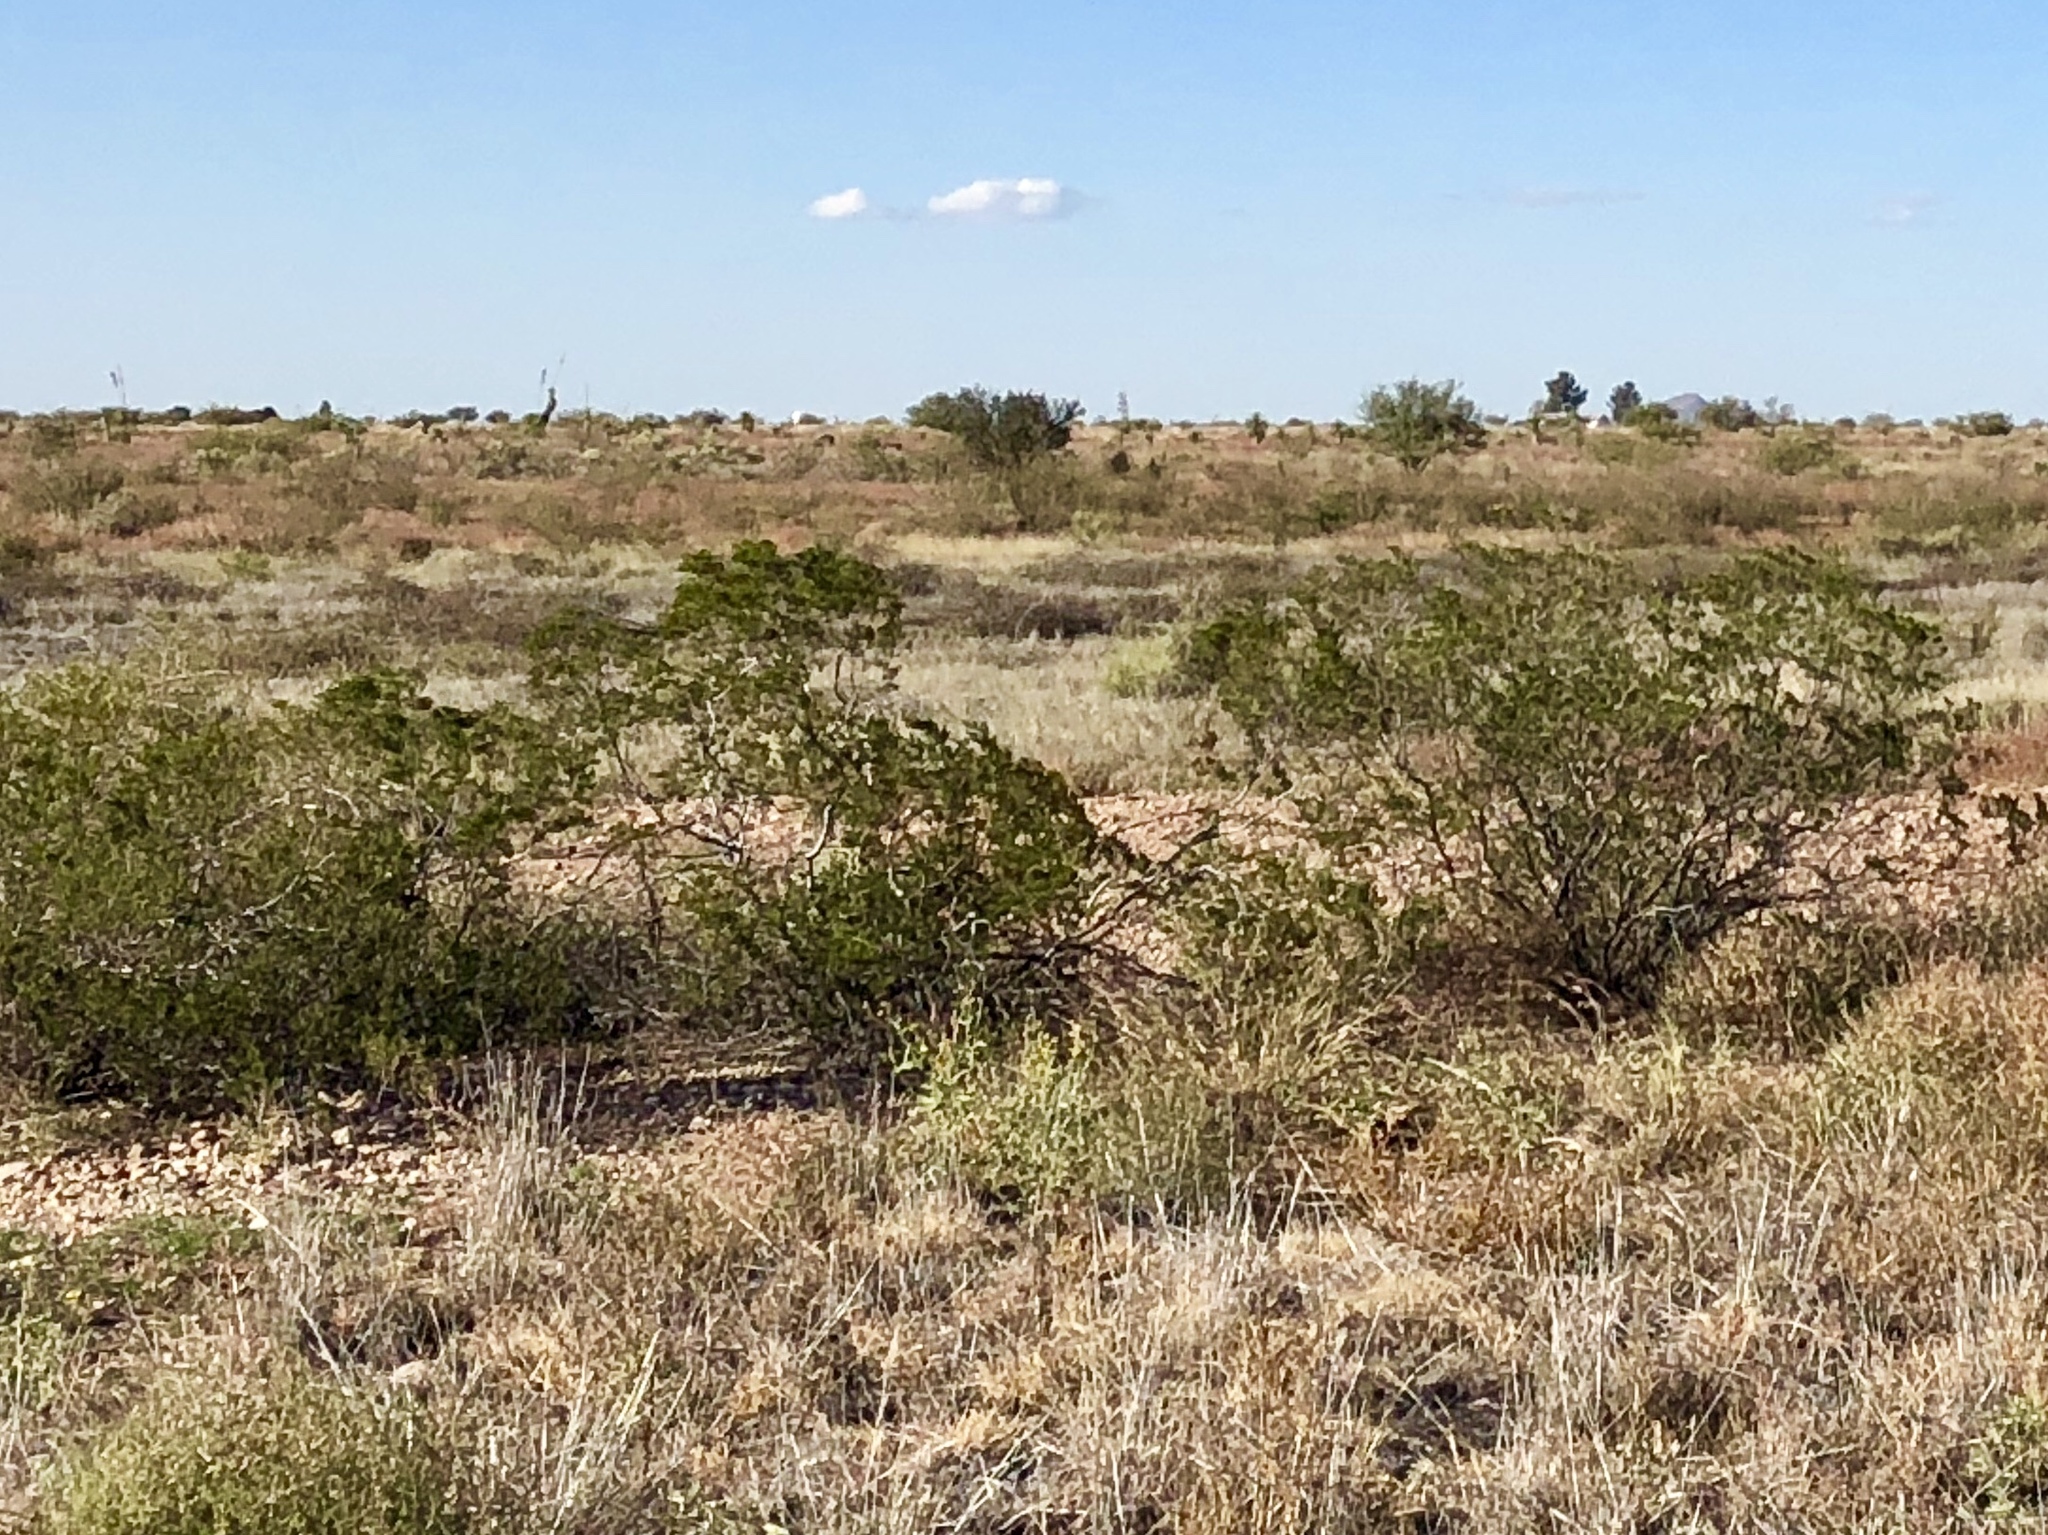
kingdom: Plantae
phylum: Tracheophyta
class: Magnoliopsida
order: Zygophyllales
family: Zygophyllaceae
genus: Larrea
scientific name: Larrea tridentata
